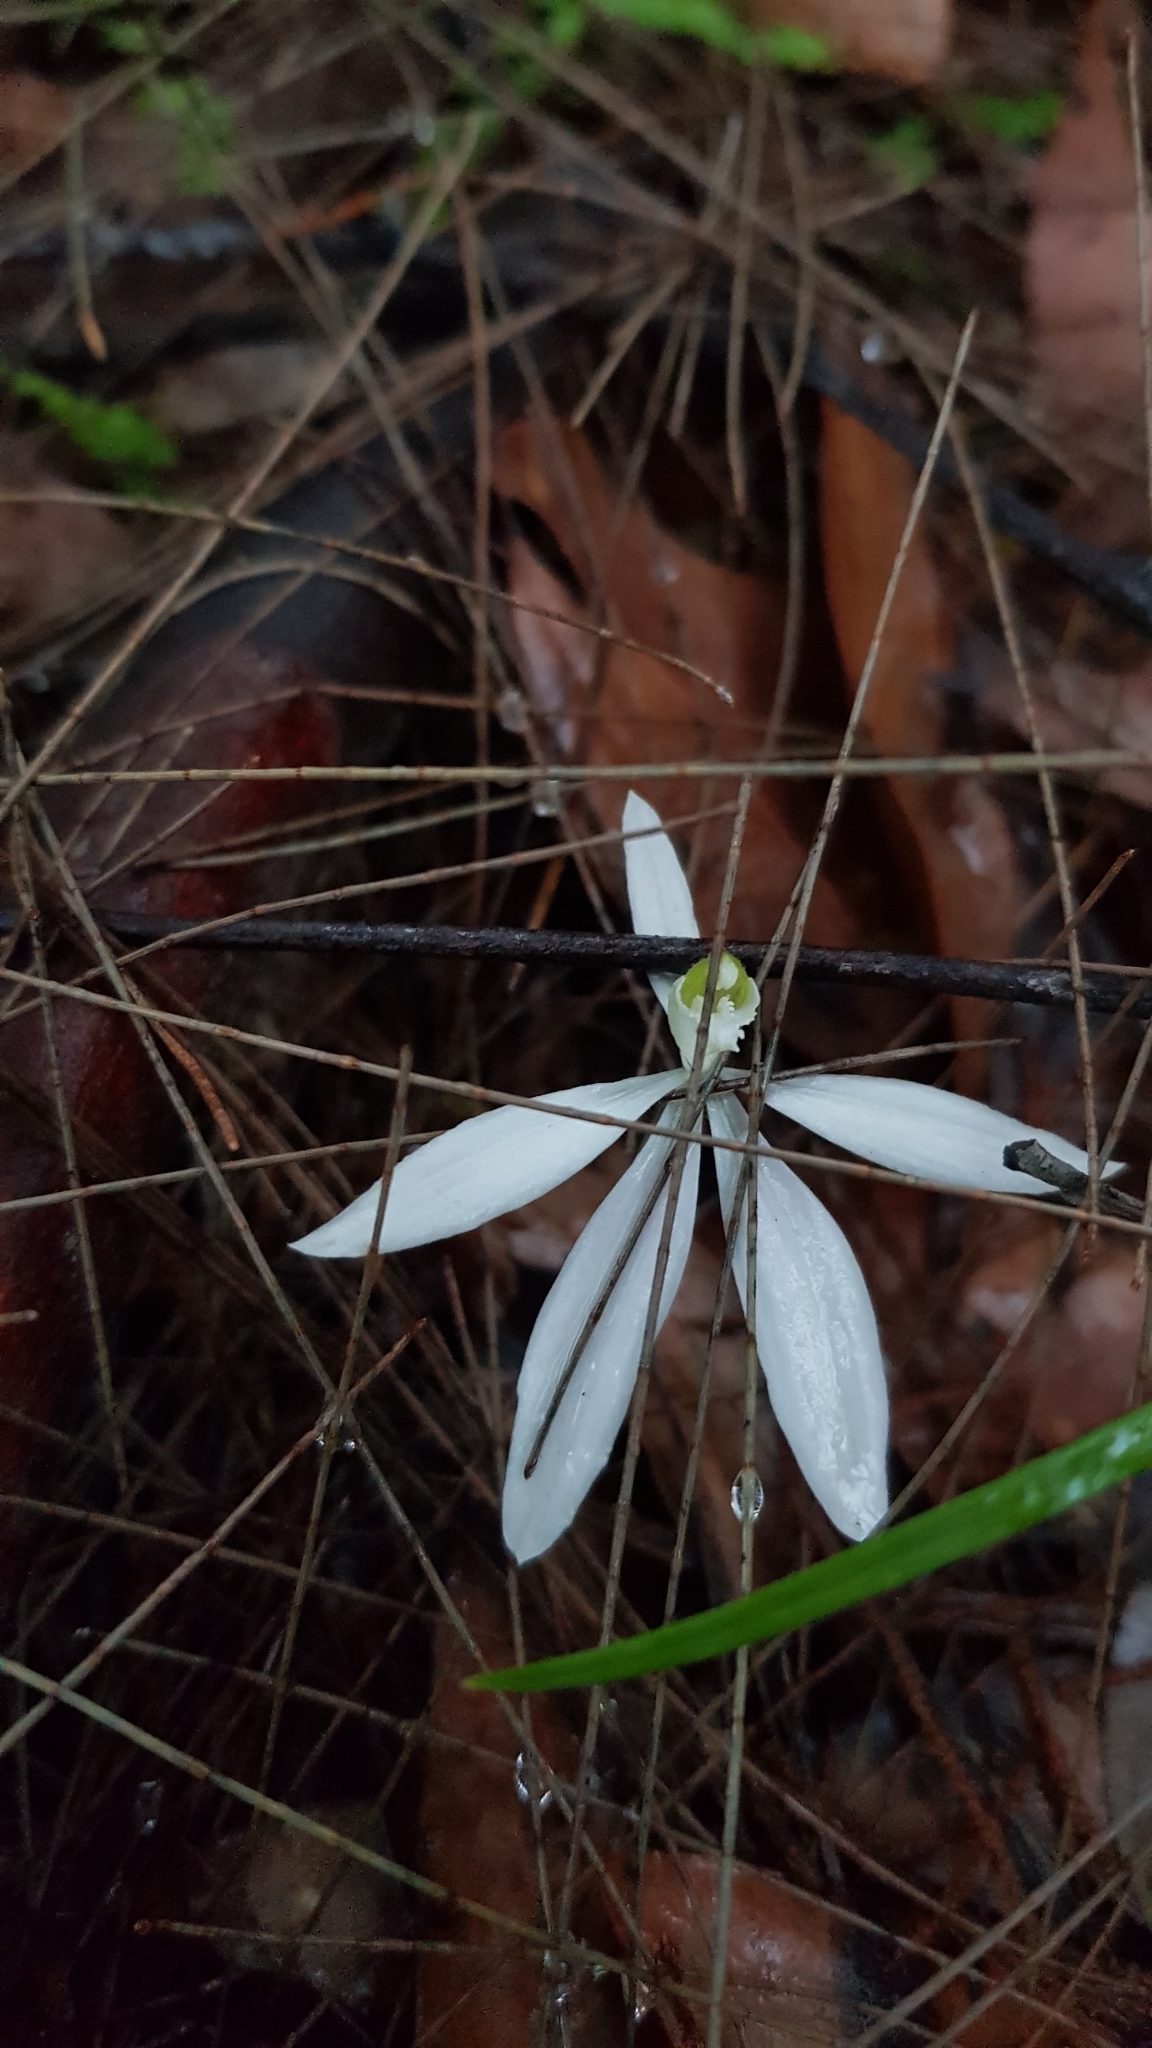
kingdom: Plantae
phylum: Tracheophyta
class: Liliopsida
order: Asparagales
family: Orchidaceae
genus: Caladenia
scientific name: Caladenia catenata
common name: White caladenia
